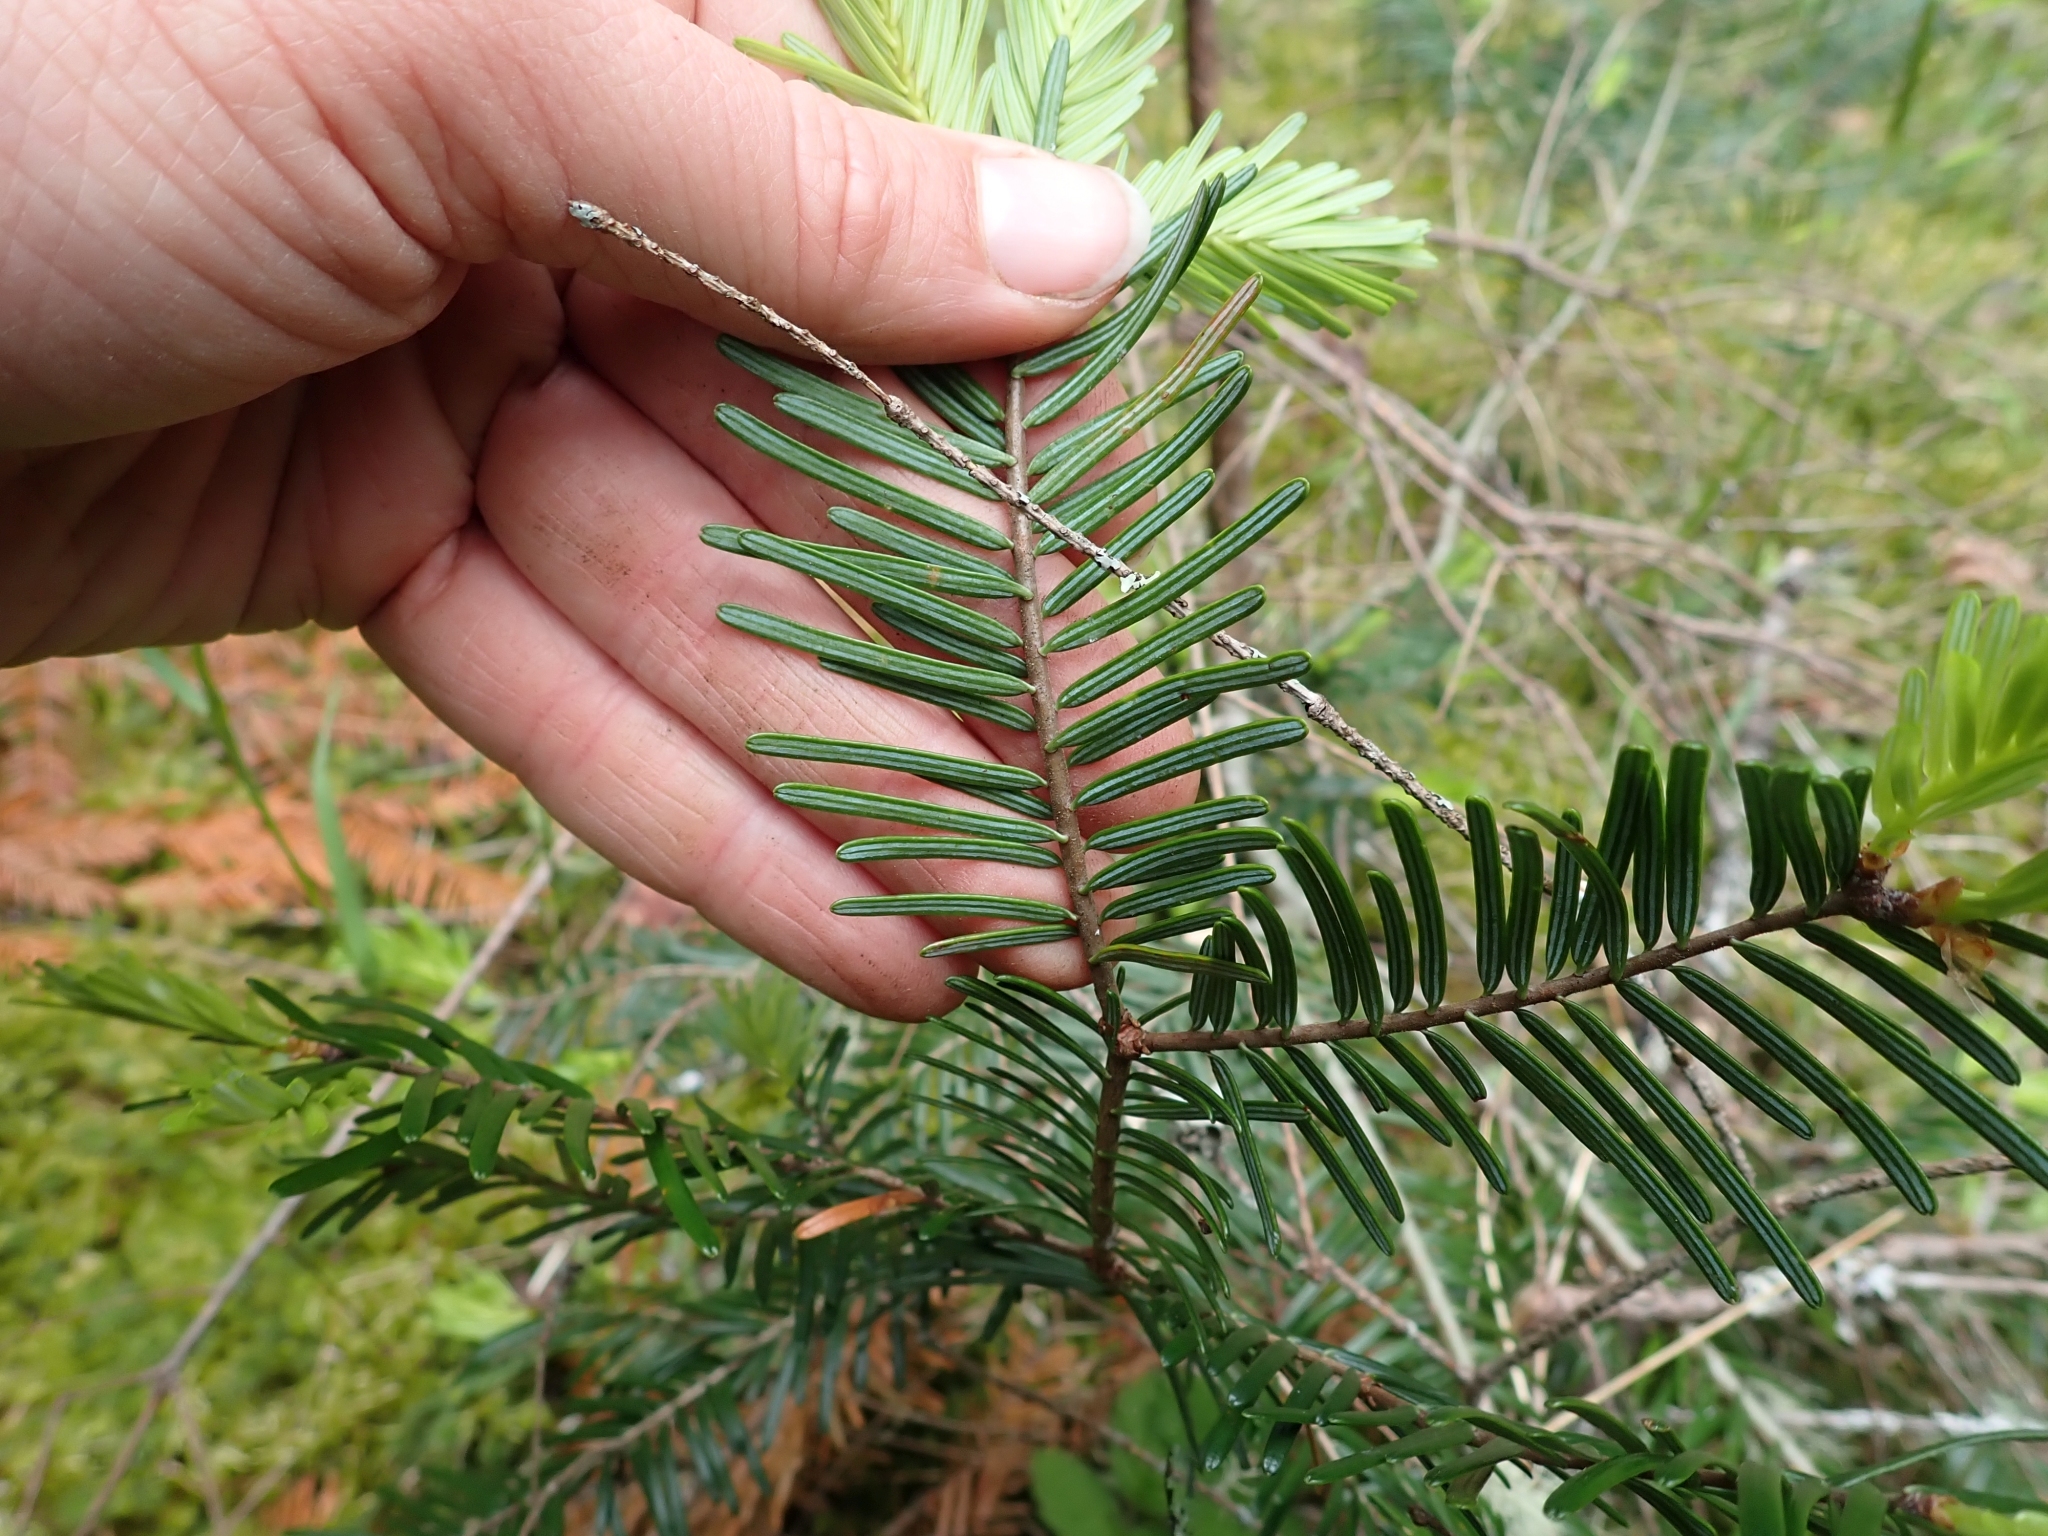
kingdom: Plantae
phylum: Tracheophyta
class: Pinopsida
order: Pinales
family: Pinaceae
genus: Abies
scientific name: Abies grandis
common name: Giant fir
